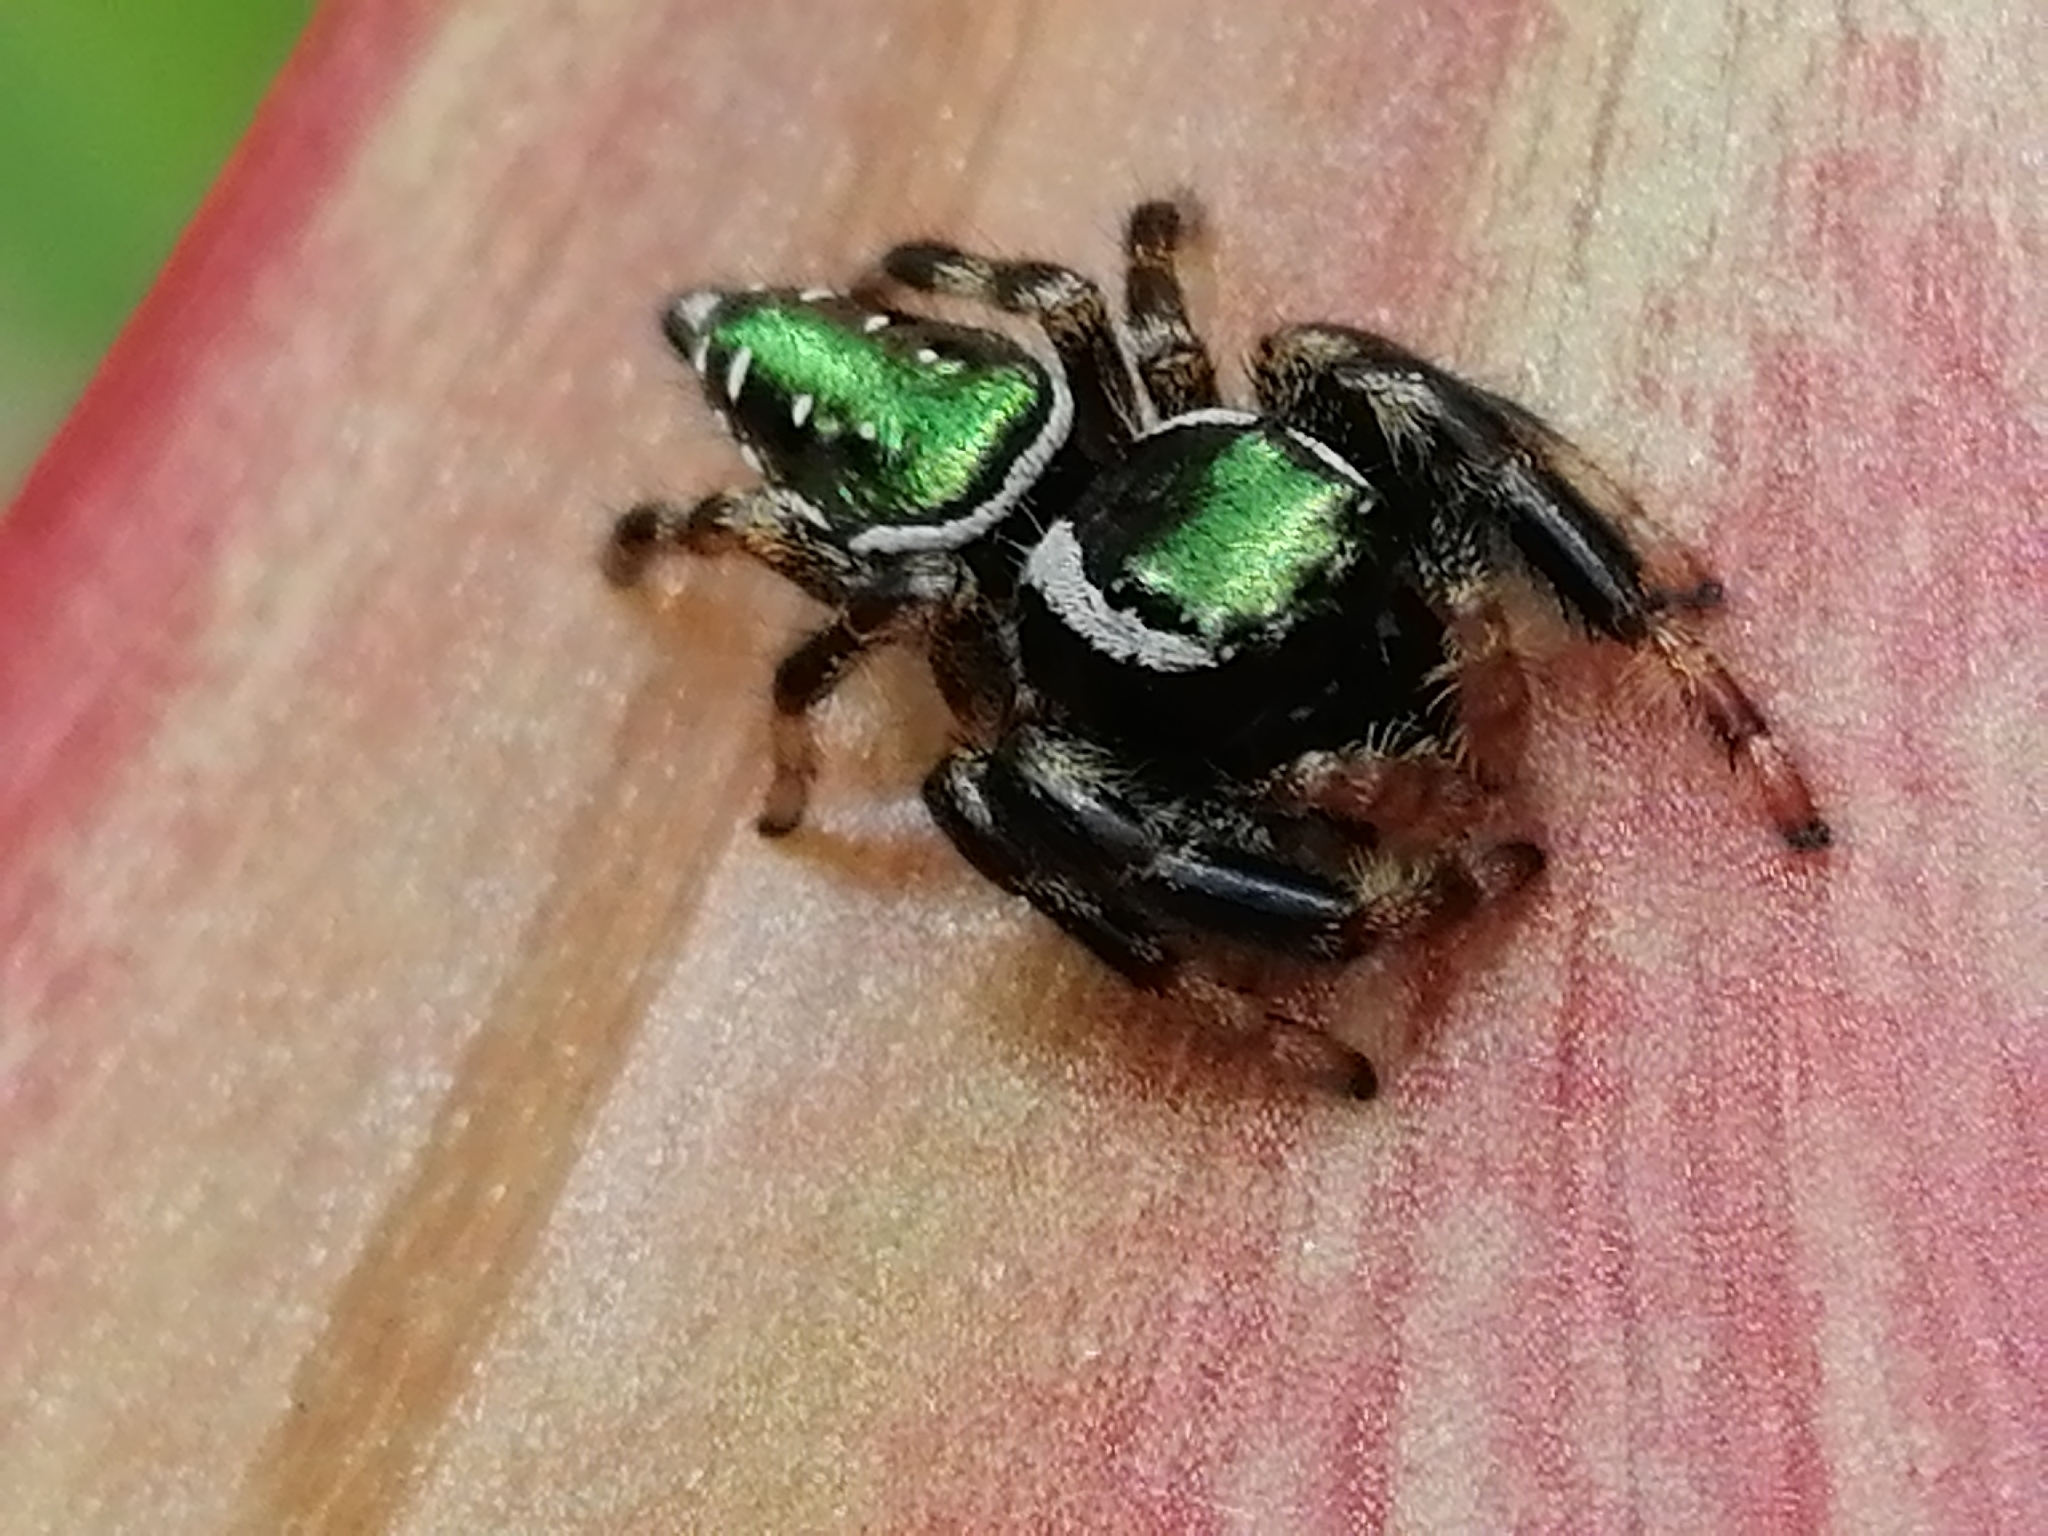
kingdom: Animalia
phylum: Arthropoda
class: Arachnida
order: Araneae
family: Salticidae
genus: Paraphidippus
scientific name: Paraphidippus aurantius
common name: Jumping spiders
